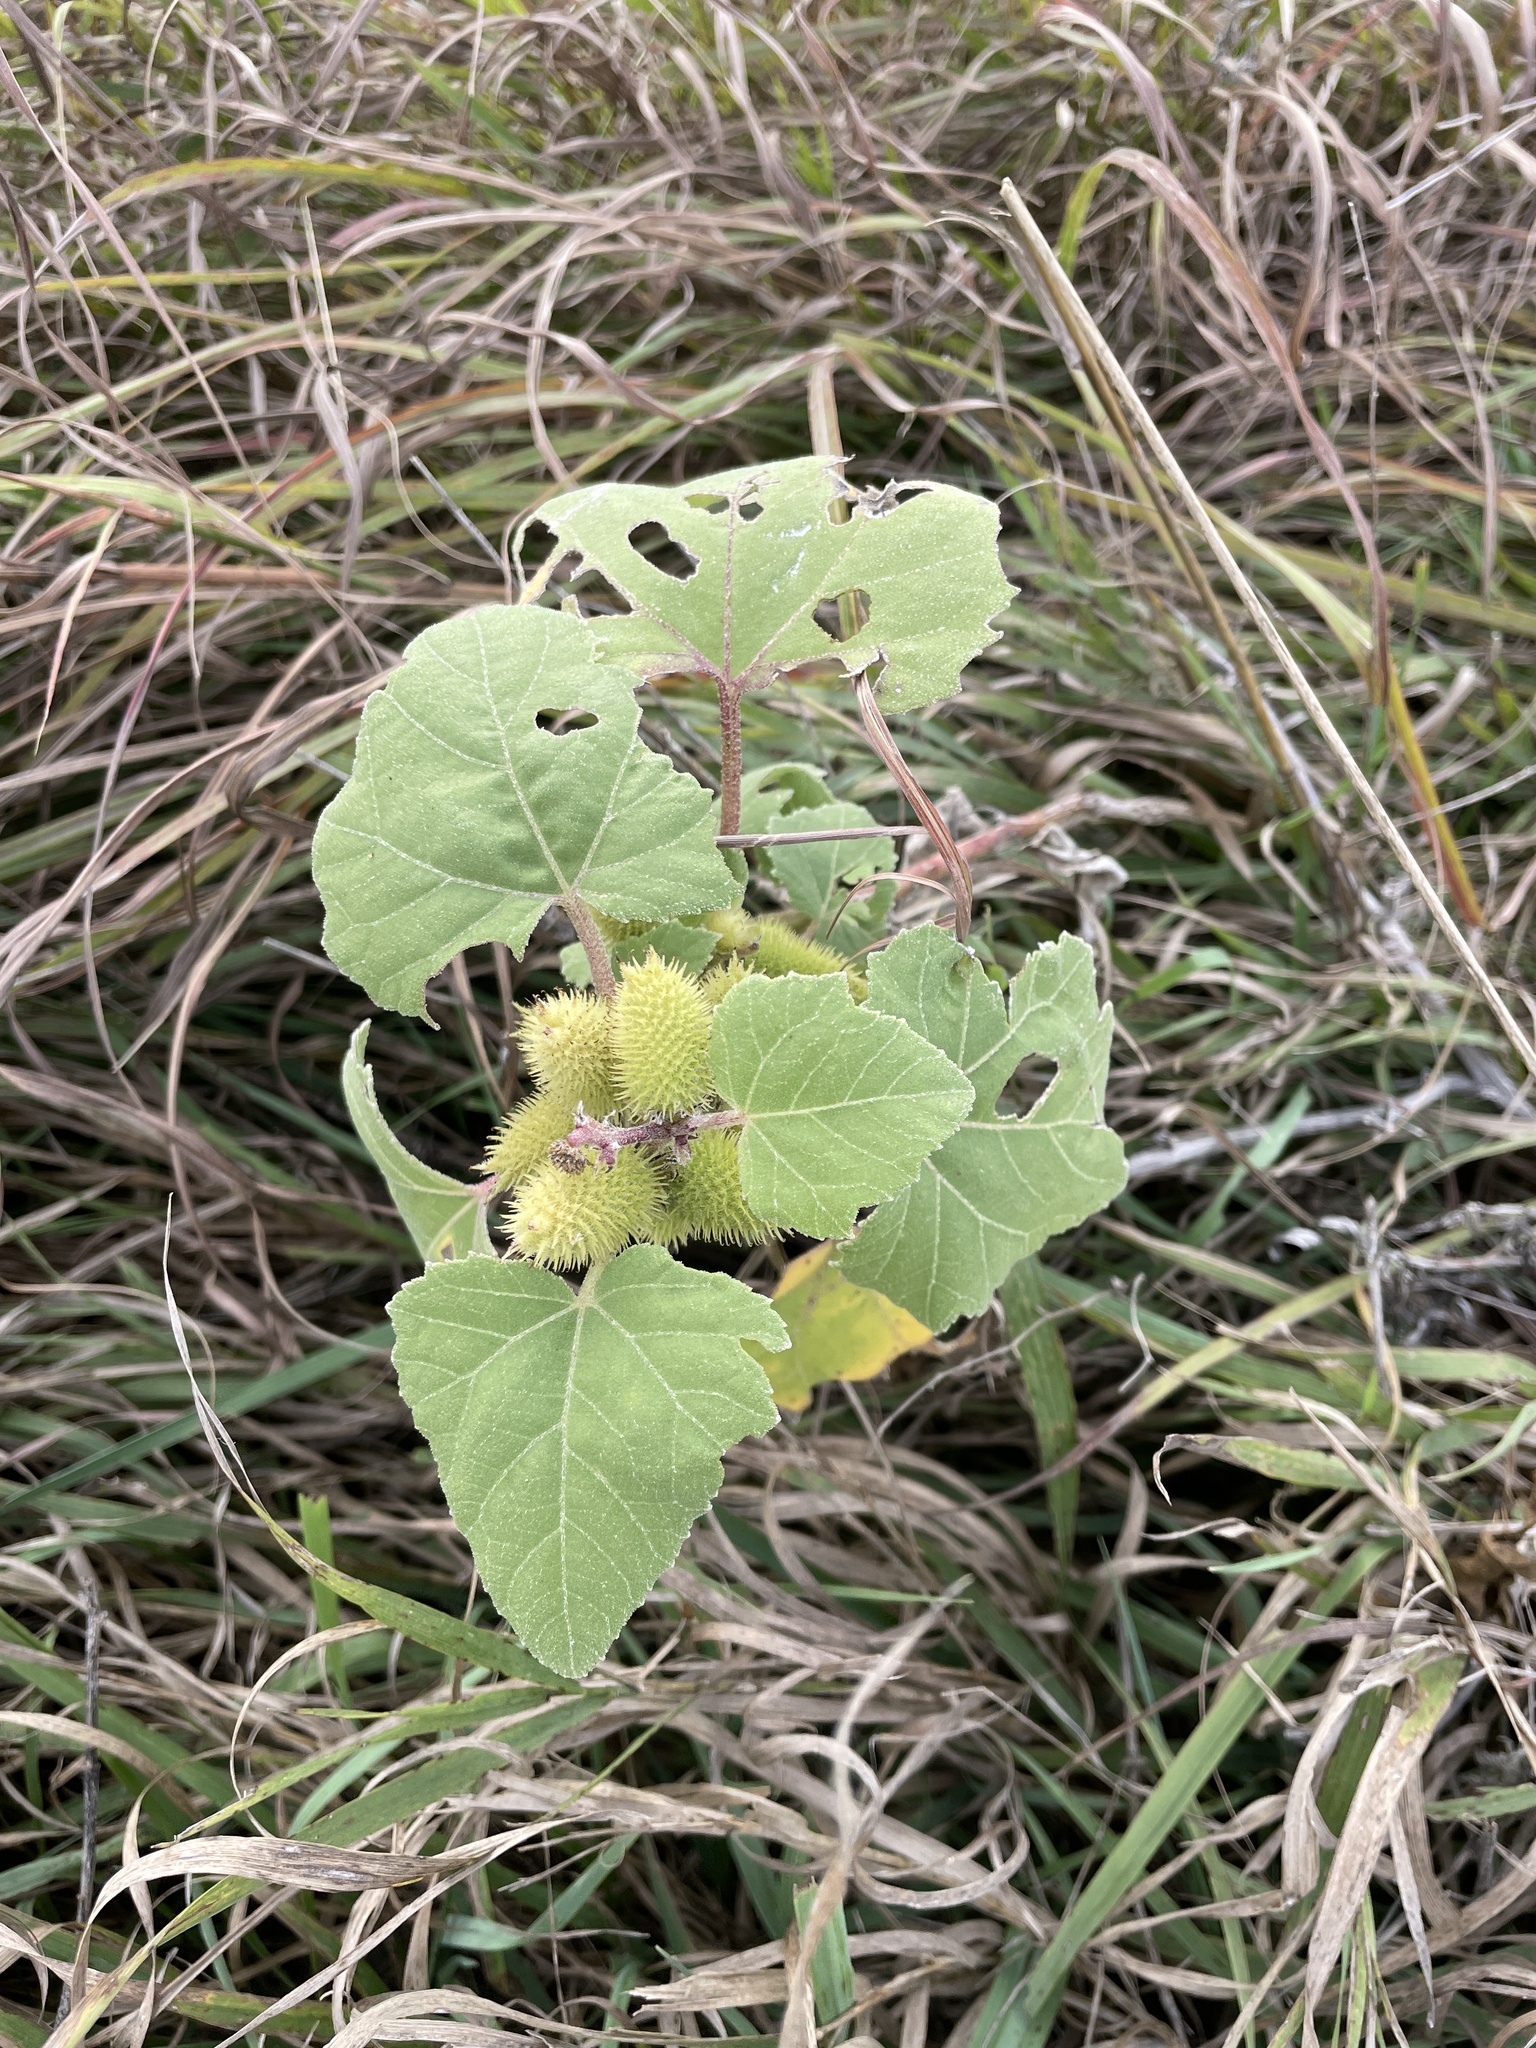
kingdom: Plantae
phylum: Tracheophyta
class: Magnoliopsida
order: Asterales
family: Asteraceae
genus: Xanthium
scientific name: Xanthium strumarium
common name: Rough cocklebur
